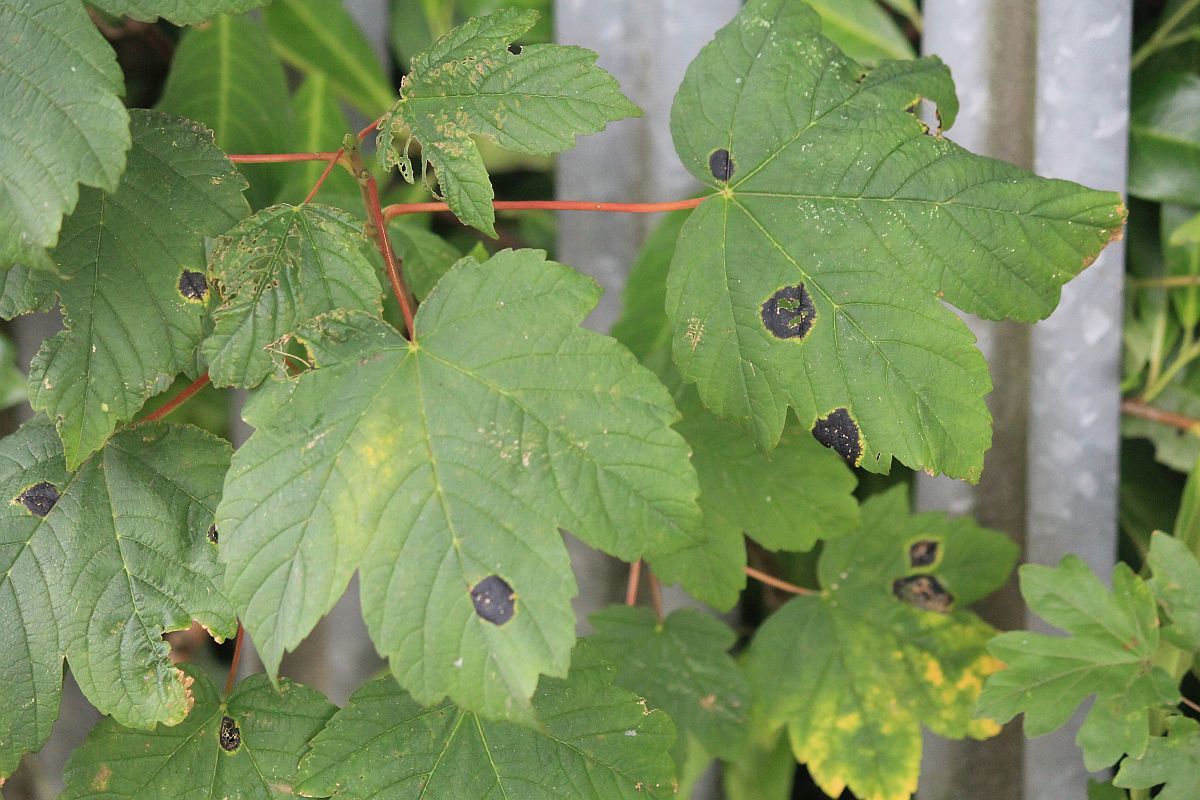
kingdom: Fungi
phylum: Ascomycota
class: Leotiomycetes
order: Rhytismatales
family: Rhytismataceae
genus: Rhytisma
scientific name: Rhytisma acerinum
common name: European tar spot
